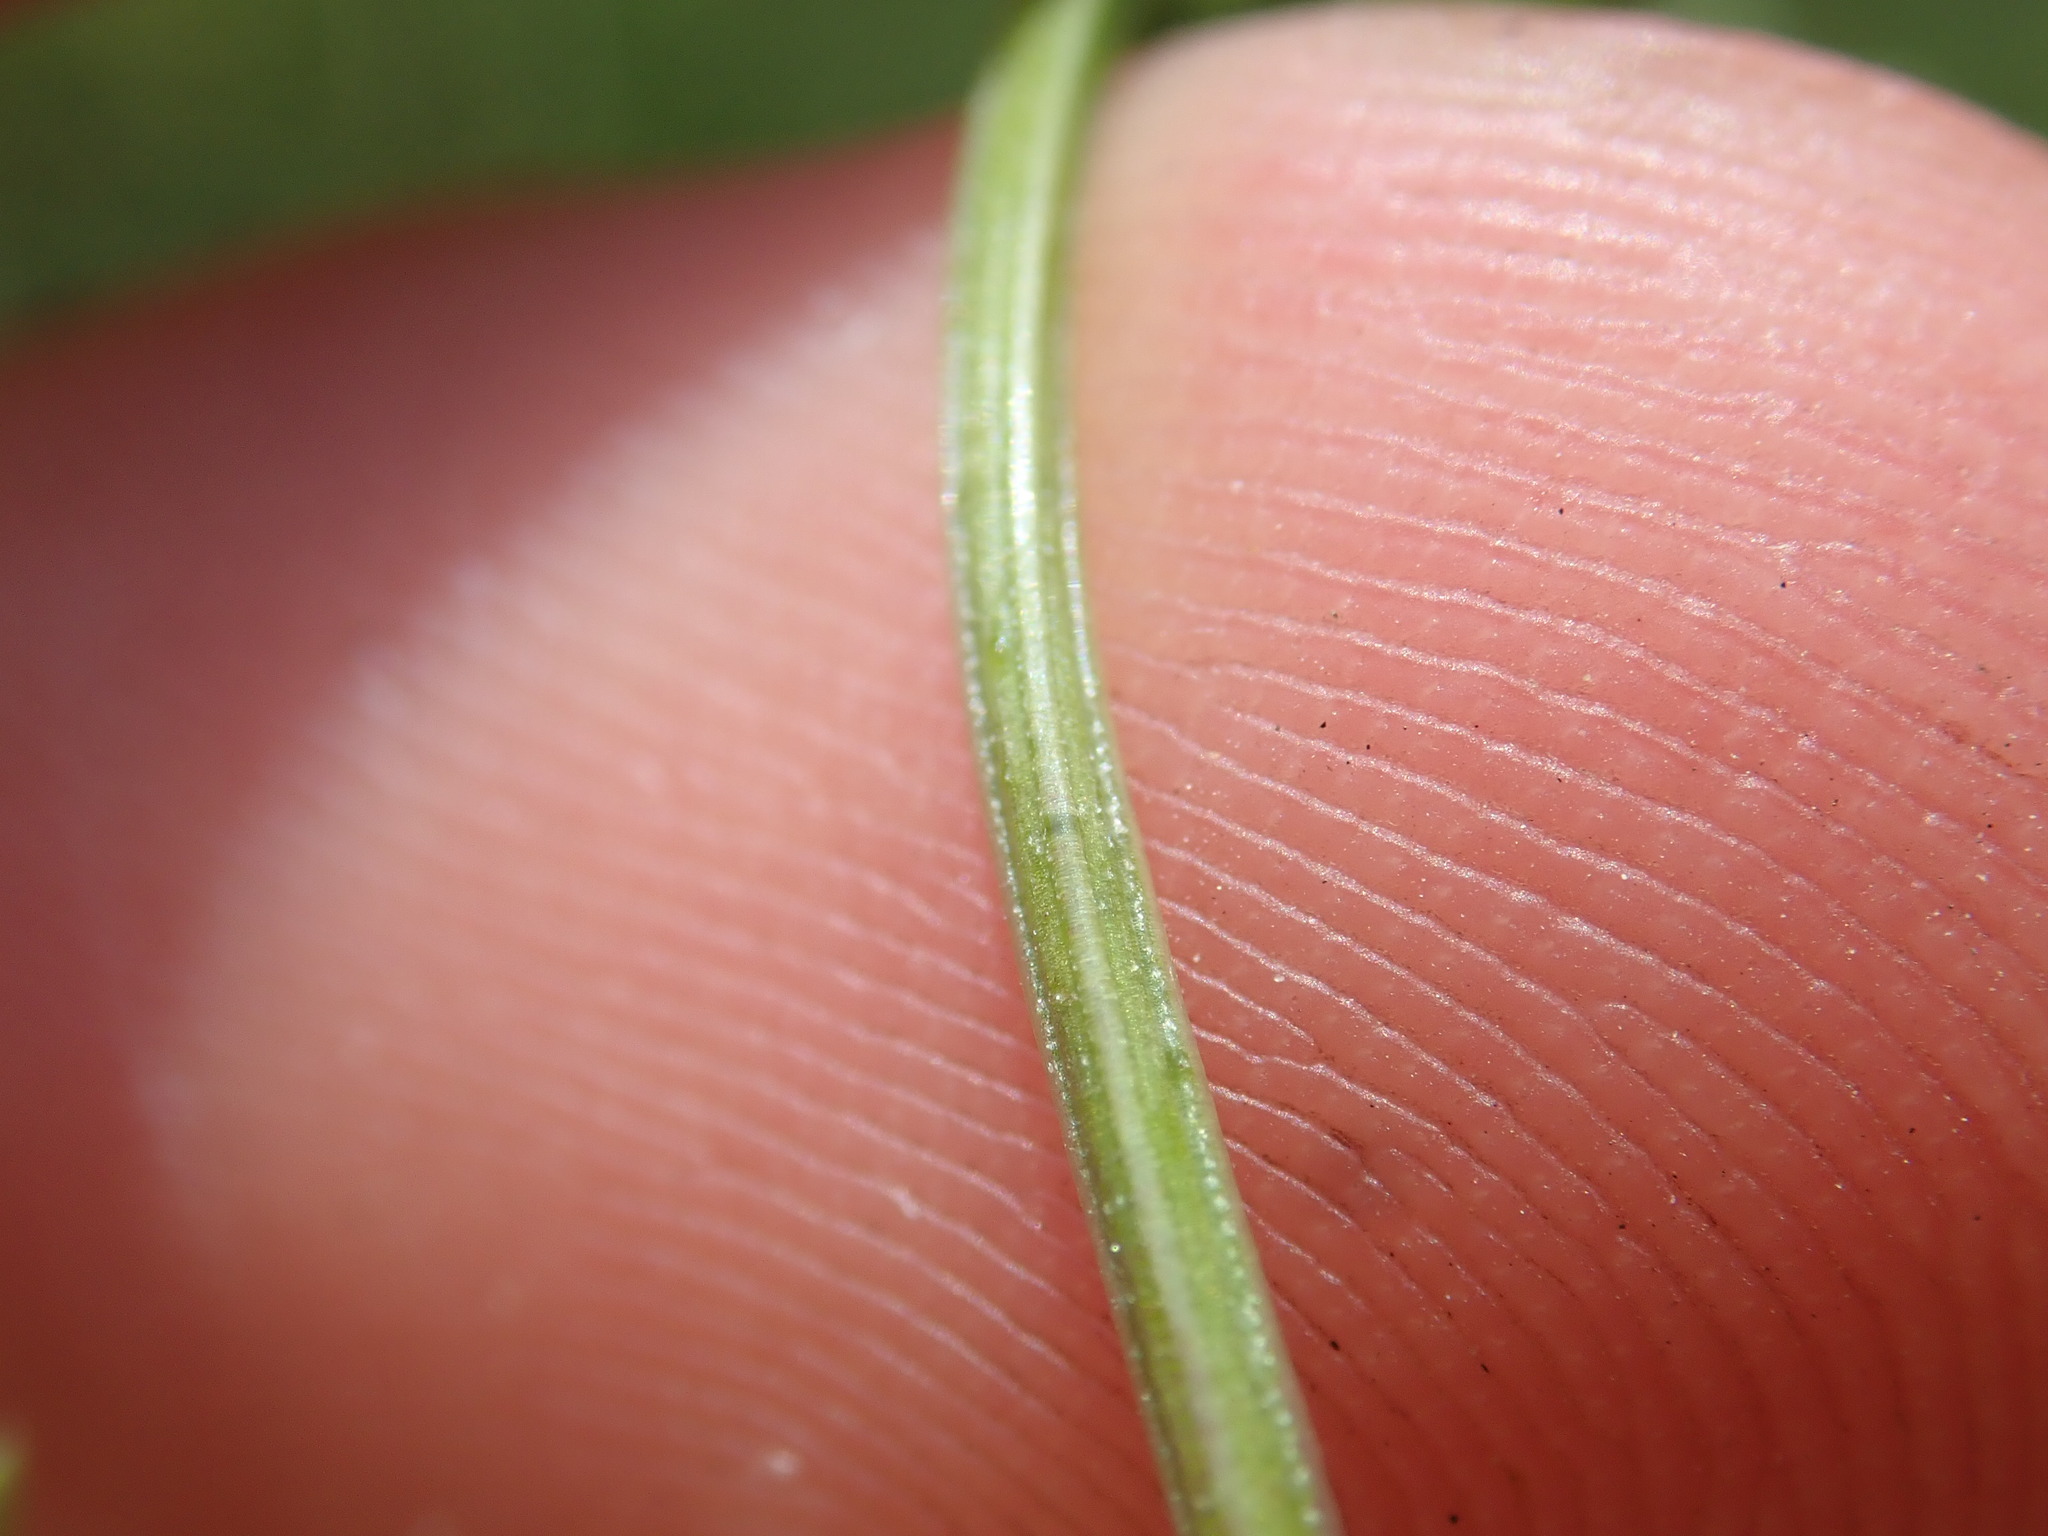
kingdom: Plantae
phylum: Tracheophyta
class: Magnoliopsida
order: Gentianales
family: Rubiaceae
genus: Galium
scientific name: Galium mollugo
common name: Hedge bedstraw
